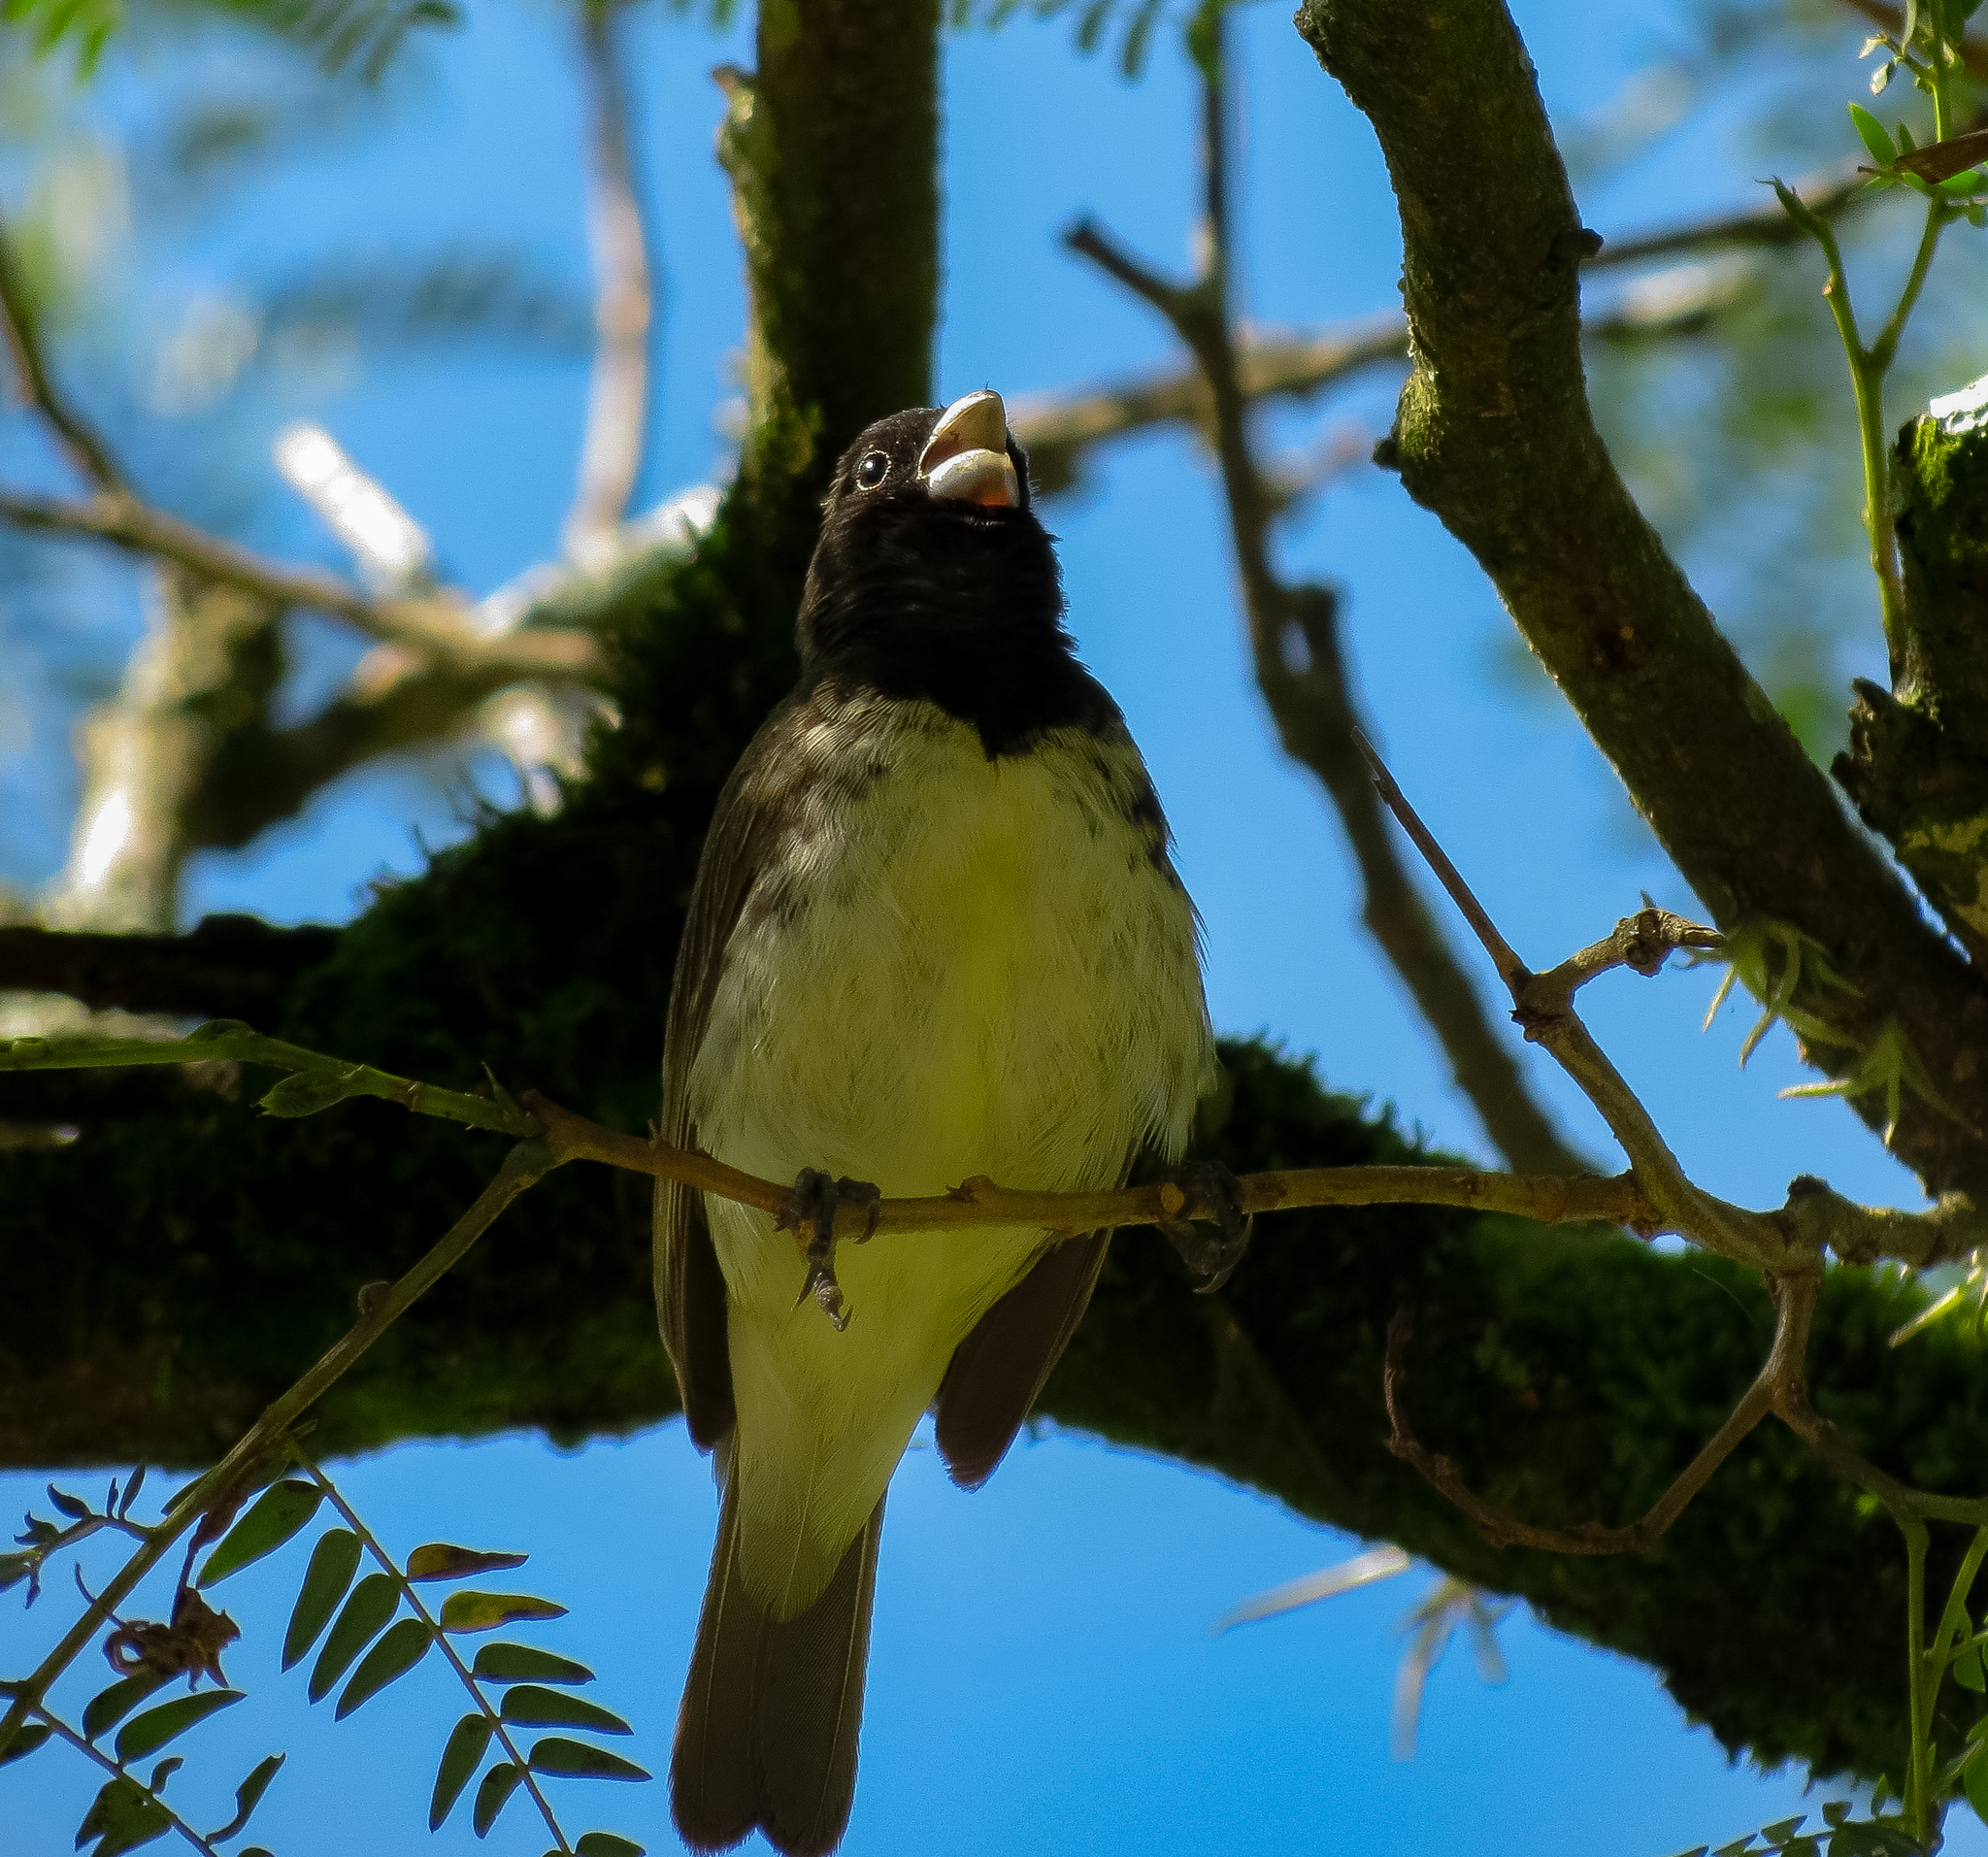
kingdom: Animalia
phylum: Chordata
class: Aves
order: Passeriformes
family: Thraupidae
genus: Sporophila
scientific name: Sporophila nigricollis
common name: Yellow-bellied seedeater
